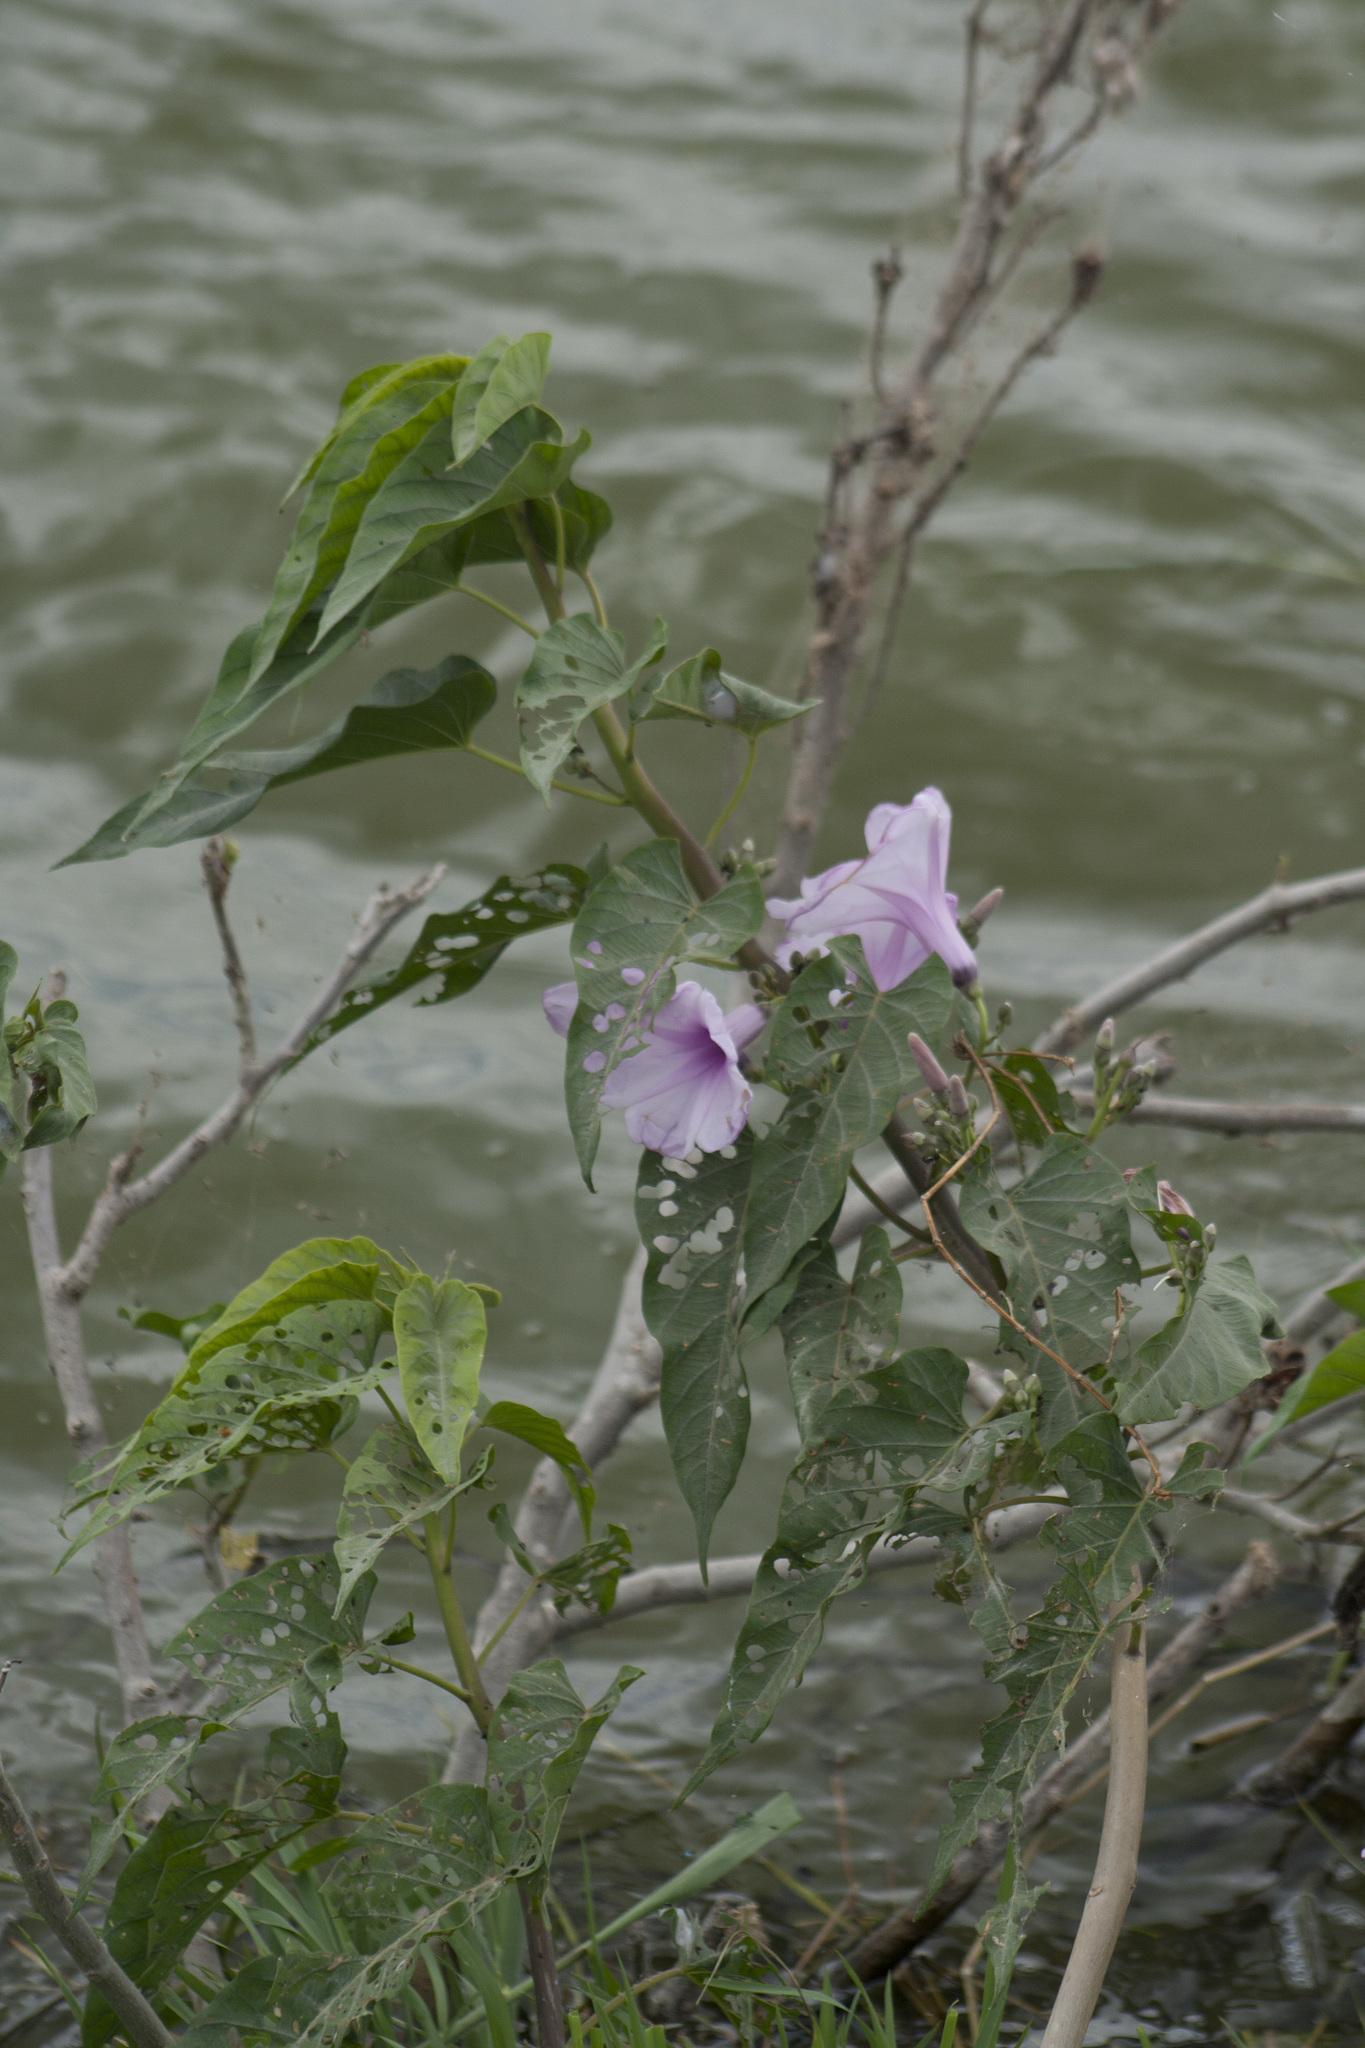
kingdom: Plantae
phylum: Tracheophyta
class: Magnoliopsida
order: Solanales
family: Convolvulaceae
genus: Ipomoea
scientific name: Ipomoea carnea
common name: Morning-glory
